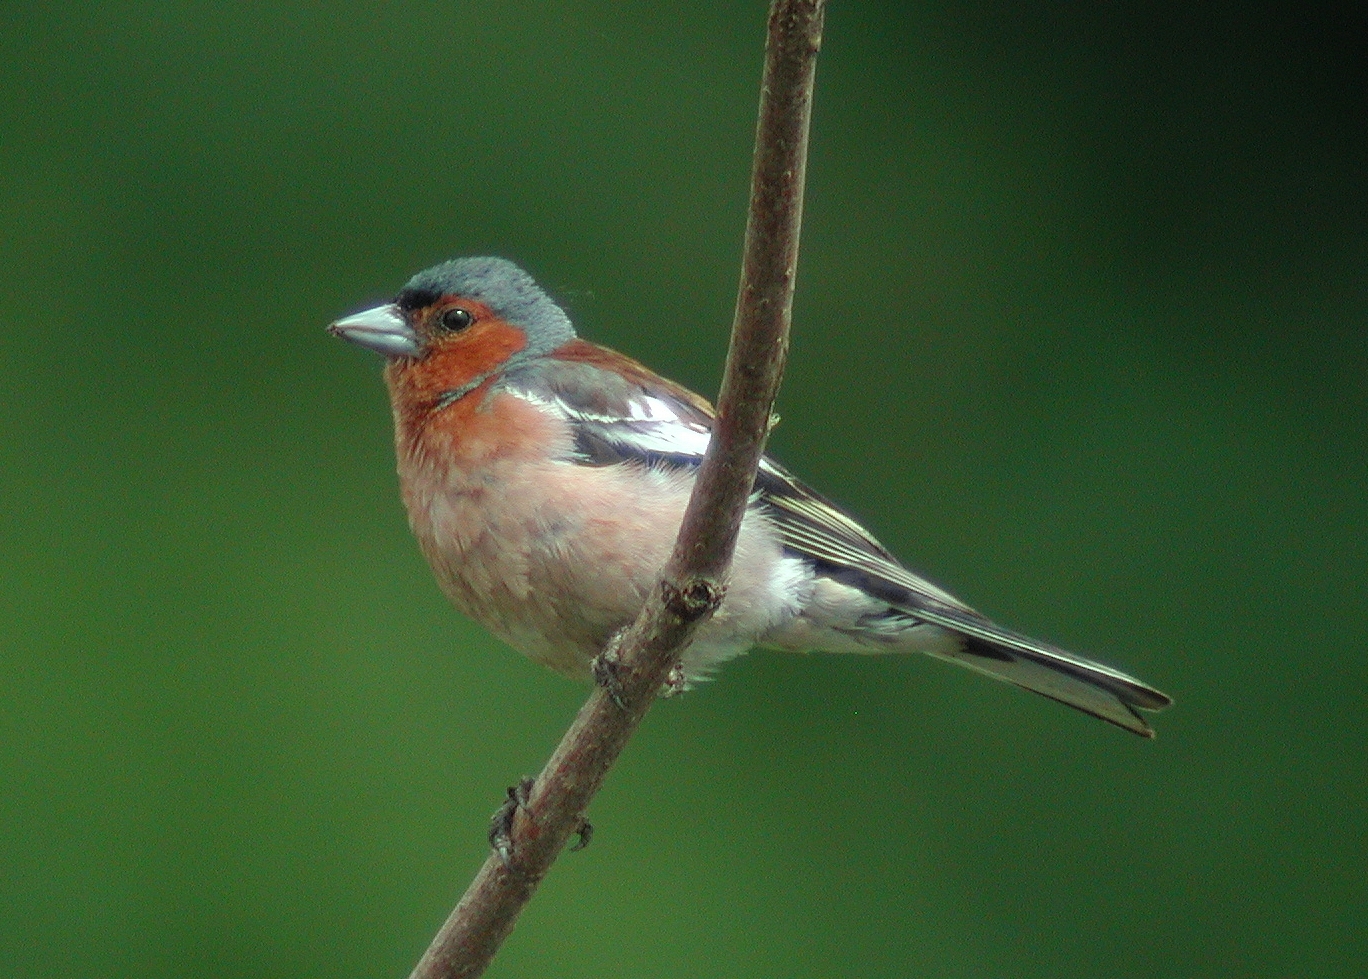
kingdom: Animalia
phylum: Chordata
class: Aves
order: Passeriformes
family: Fringillidae
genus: Fringilla
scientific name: Fringilla coelebs
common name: Common chaffinch
